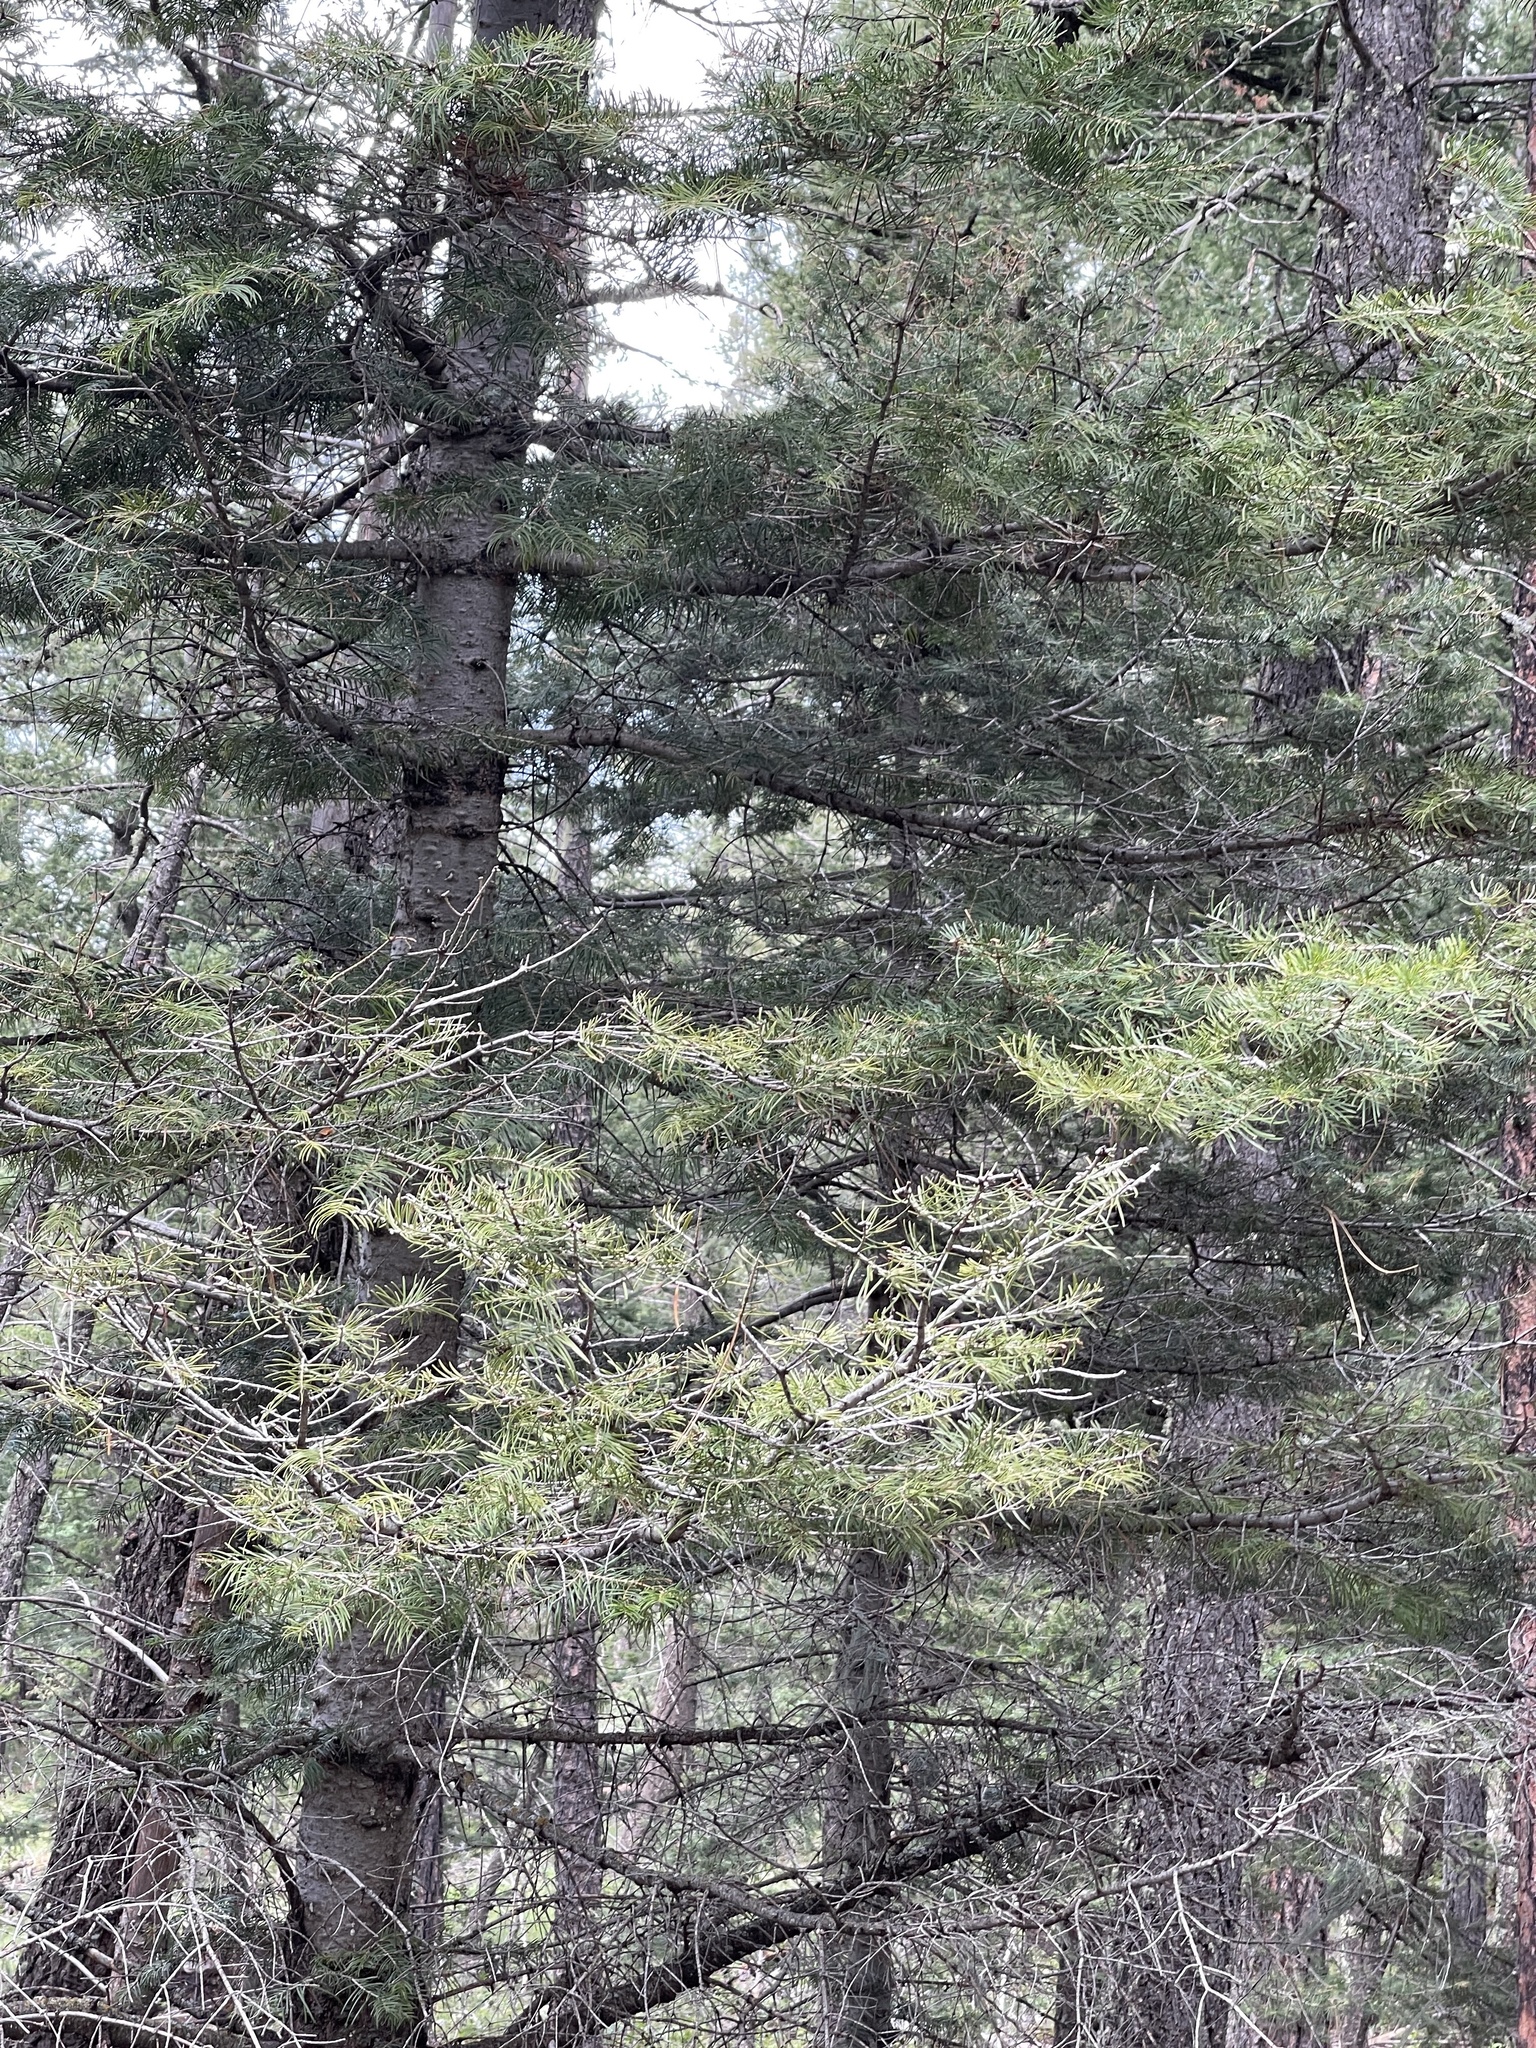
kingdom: Plantae
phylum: Tracheophyta
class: Pinopsida
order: Pinales
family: Pinaceae
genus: Abies
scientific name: Abies concolor
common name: Colorado fir
